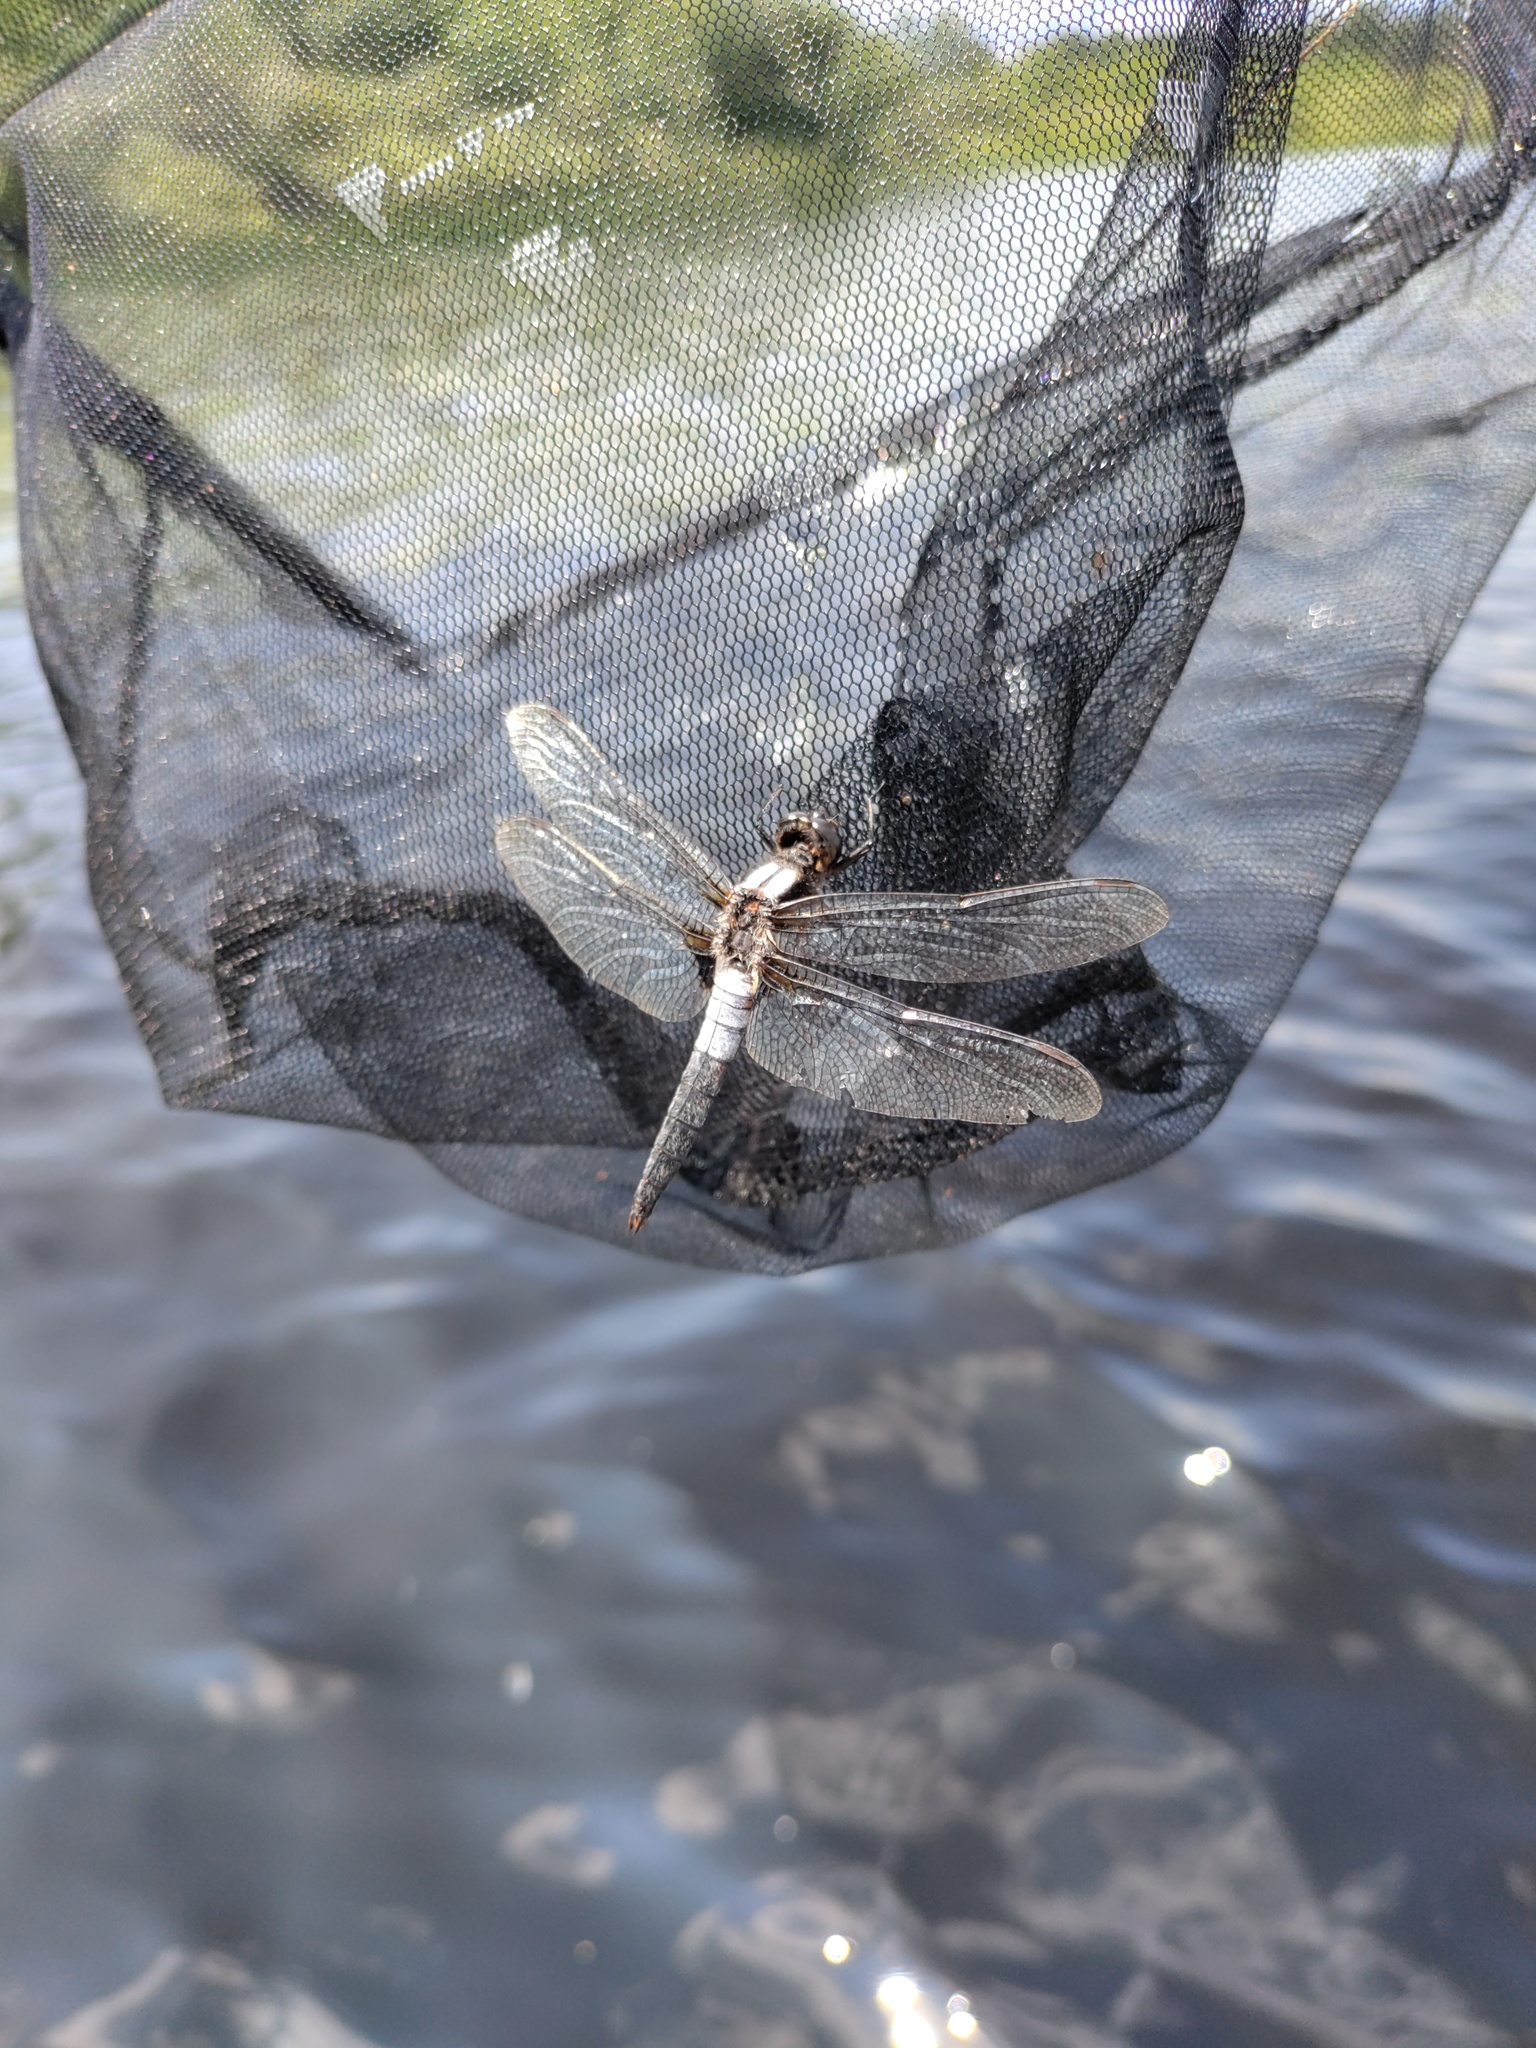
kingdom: Animalia
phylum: Arthropoda
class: Insecta
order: Odonata
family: Libellulidae
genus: Ladona
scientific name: Ladona julia
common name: Chalk-fronted corporal
